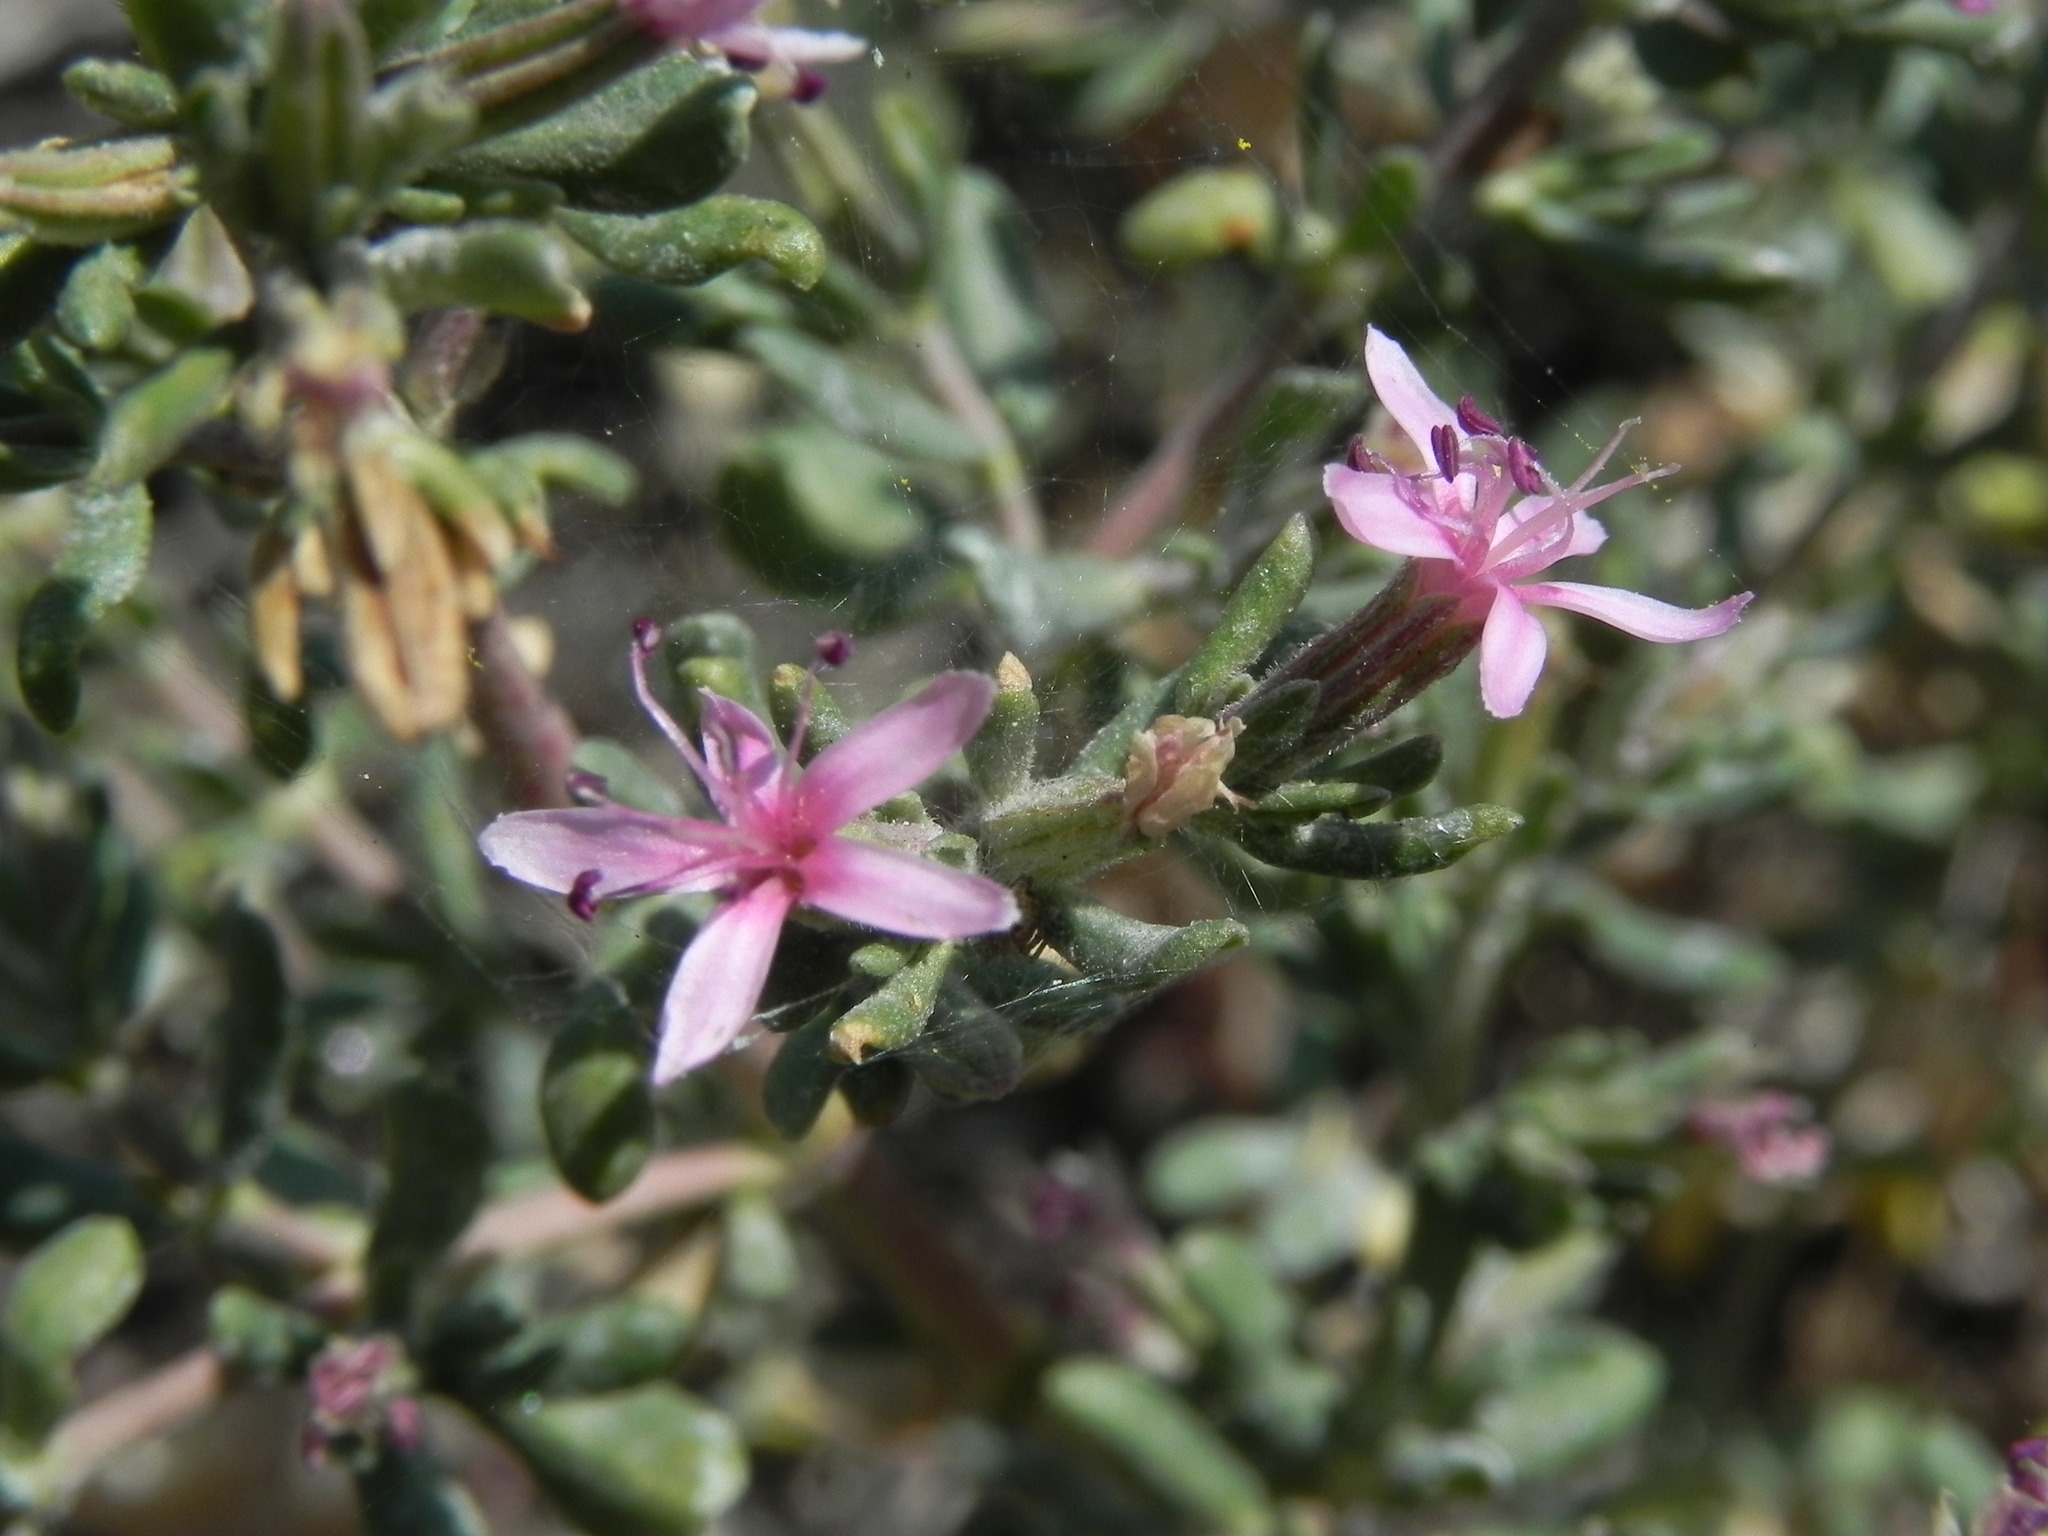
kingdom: Plantae
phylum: Tracheophyta
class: Magnoliopsida
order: Caryophyllales
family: Frankeniaceae
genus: Frankenia
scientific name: Frankenia salina
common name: Alkali seaheath
